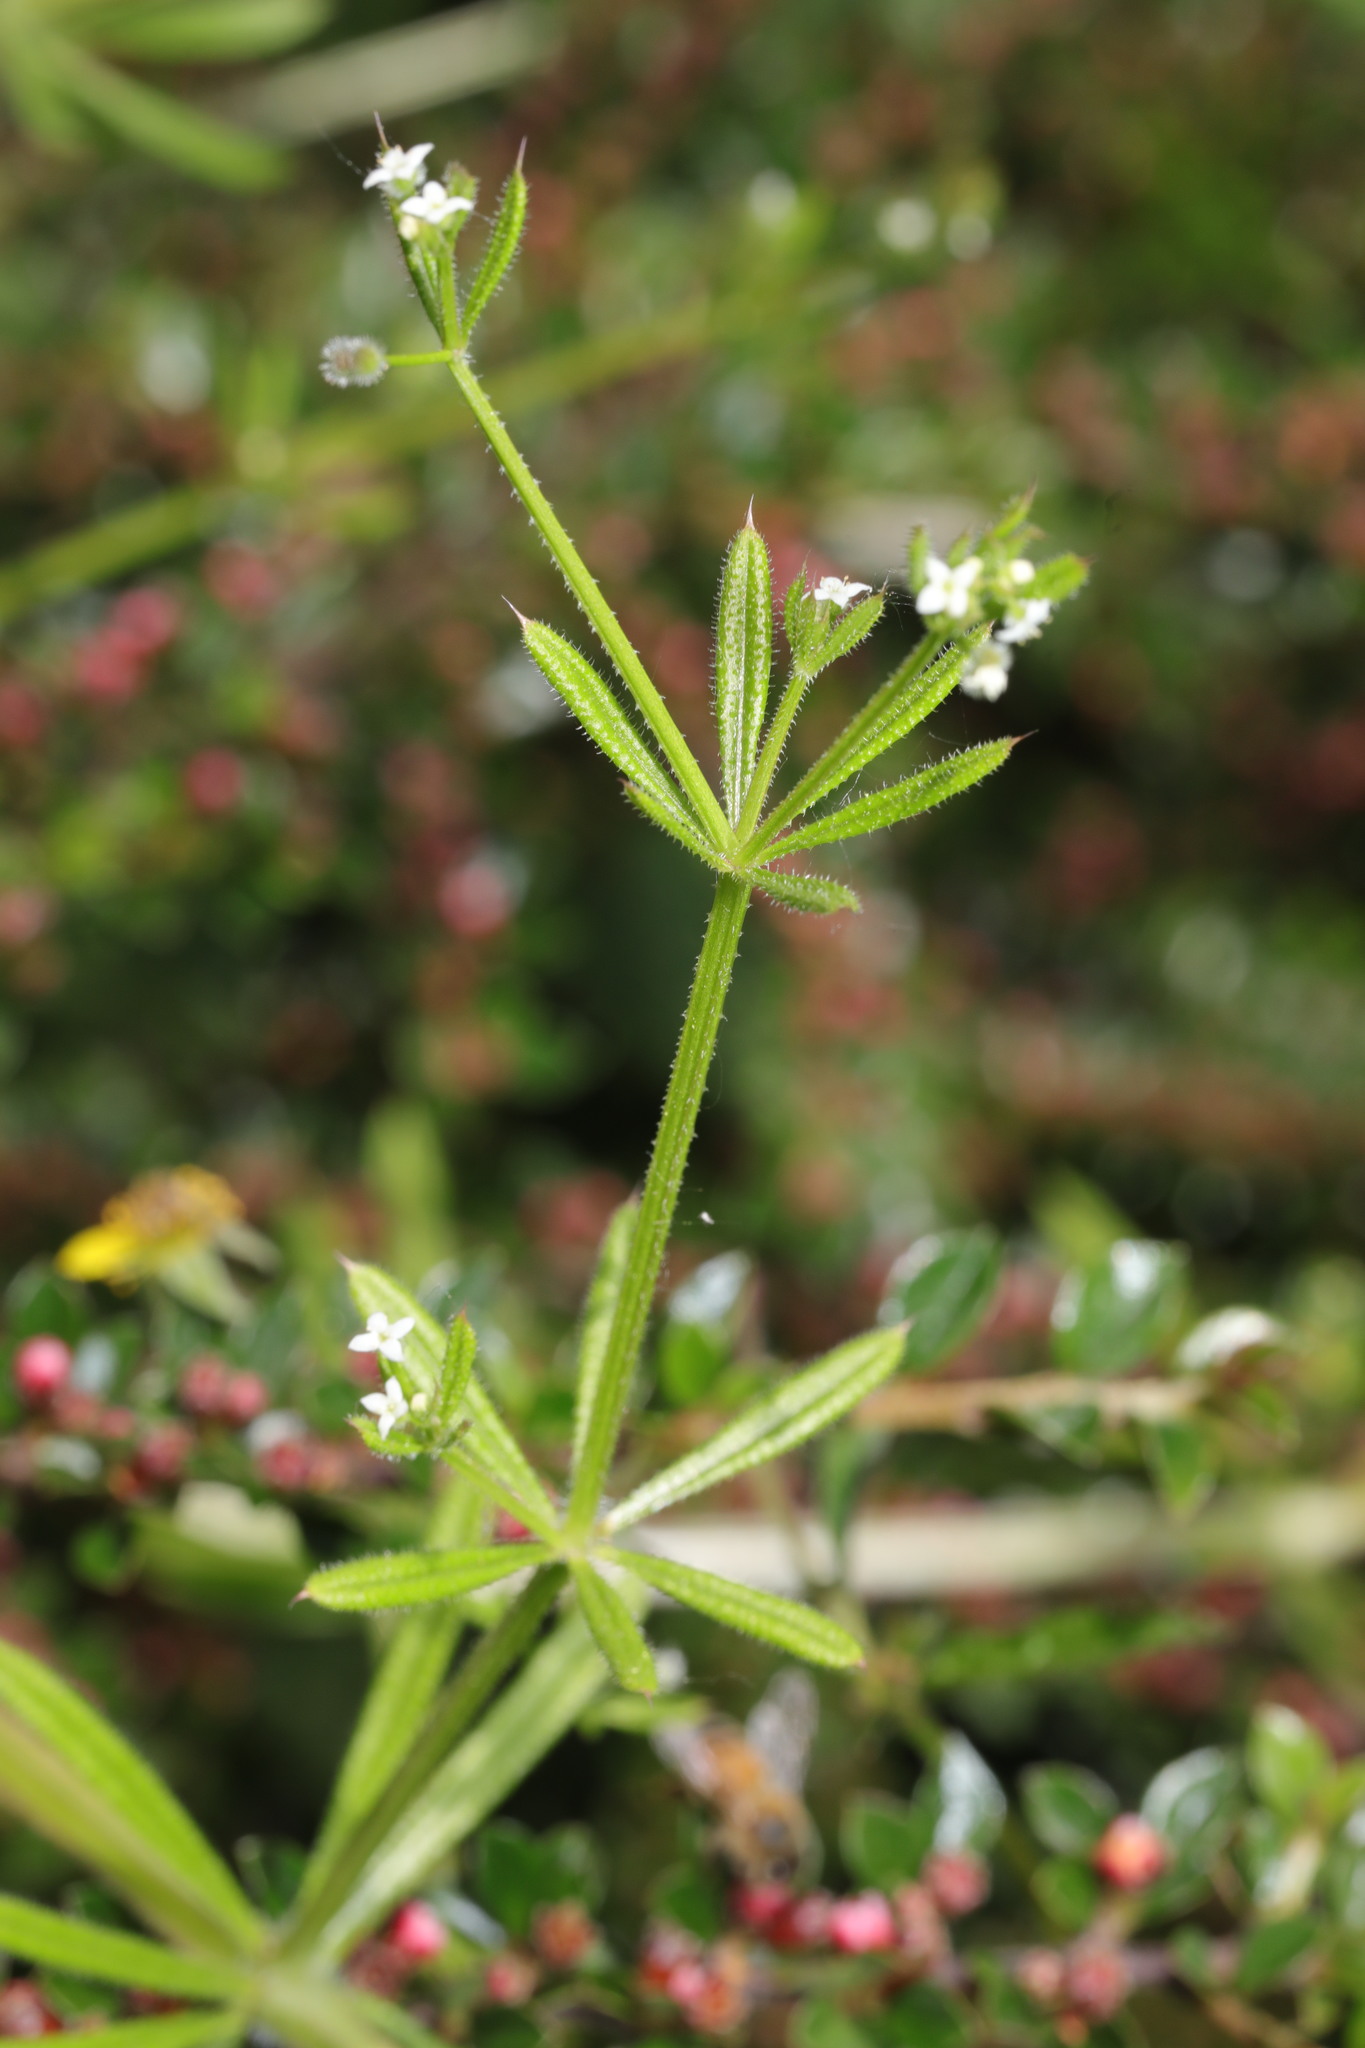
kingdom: Plantae
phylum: Tracheophyta
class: Magnoliopsida
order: Gentianales
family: Rubiaceae
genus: Galium
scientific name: Galium aparine
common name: Cleavers
